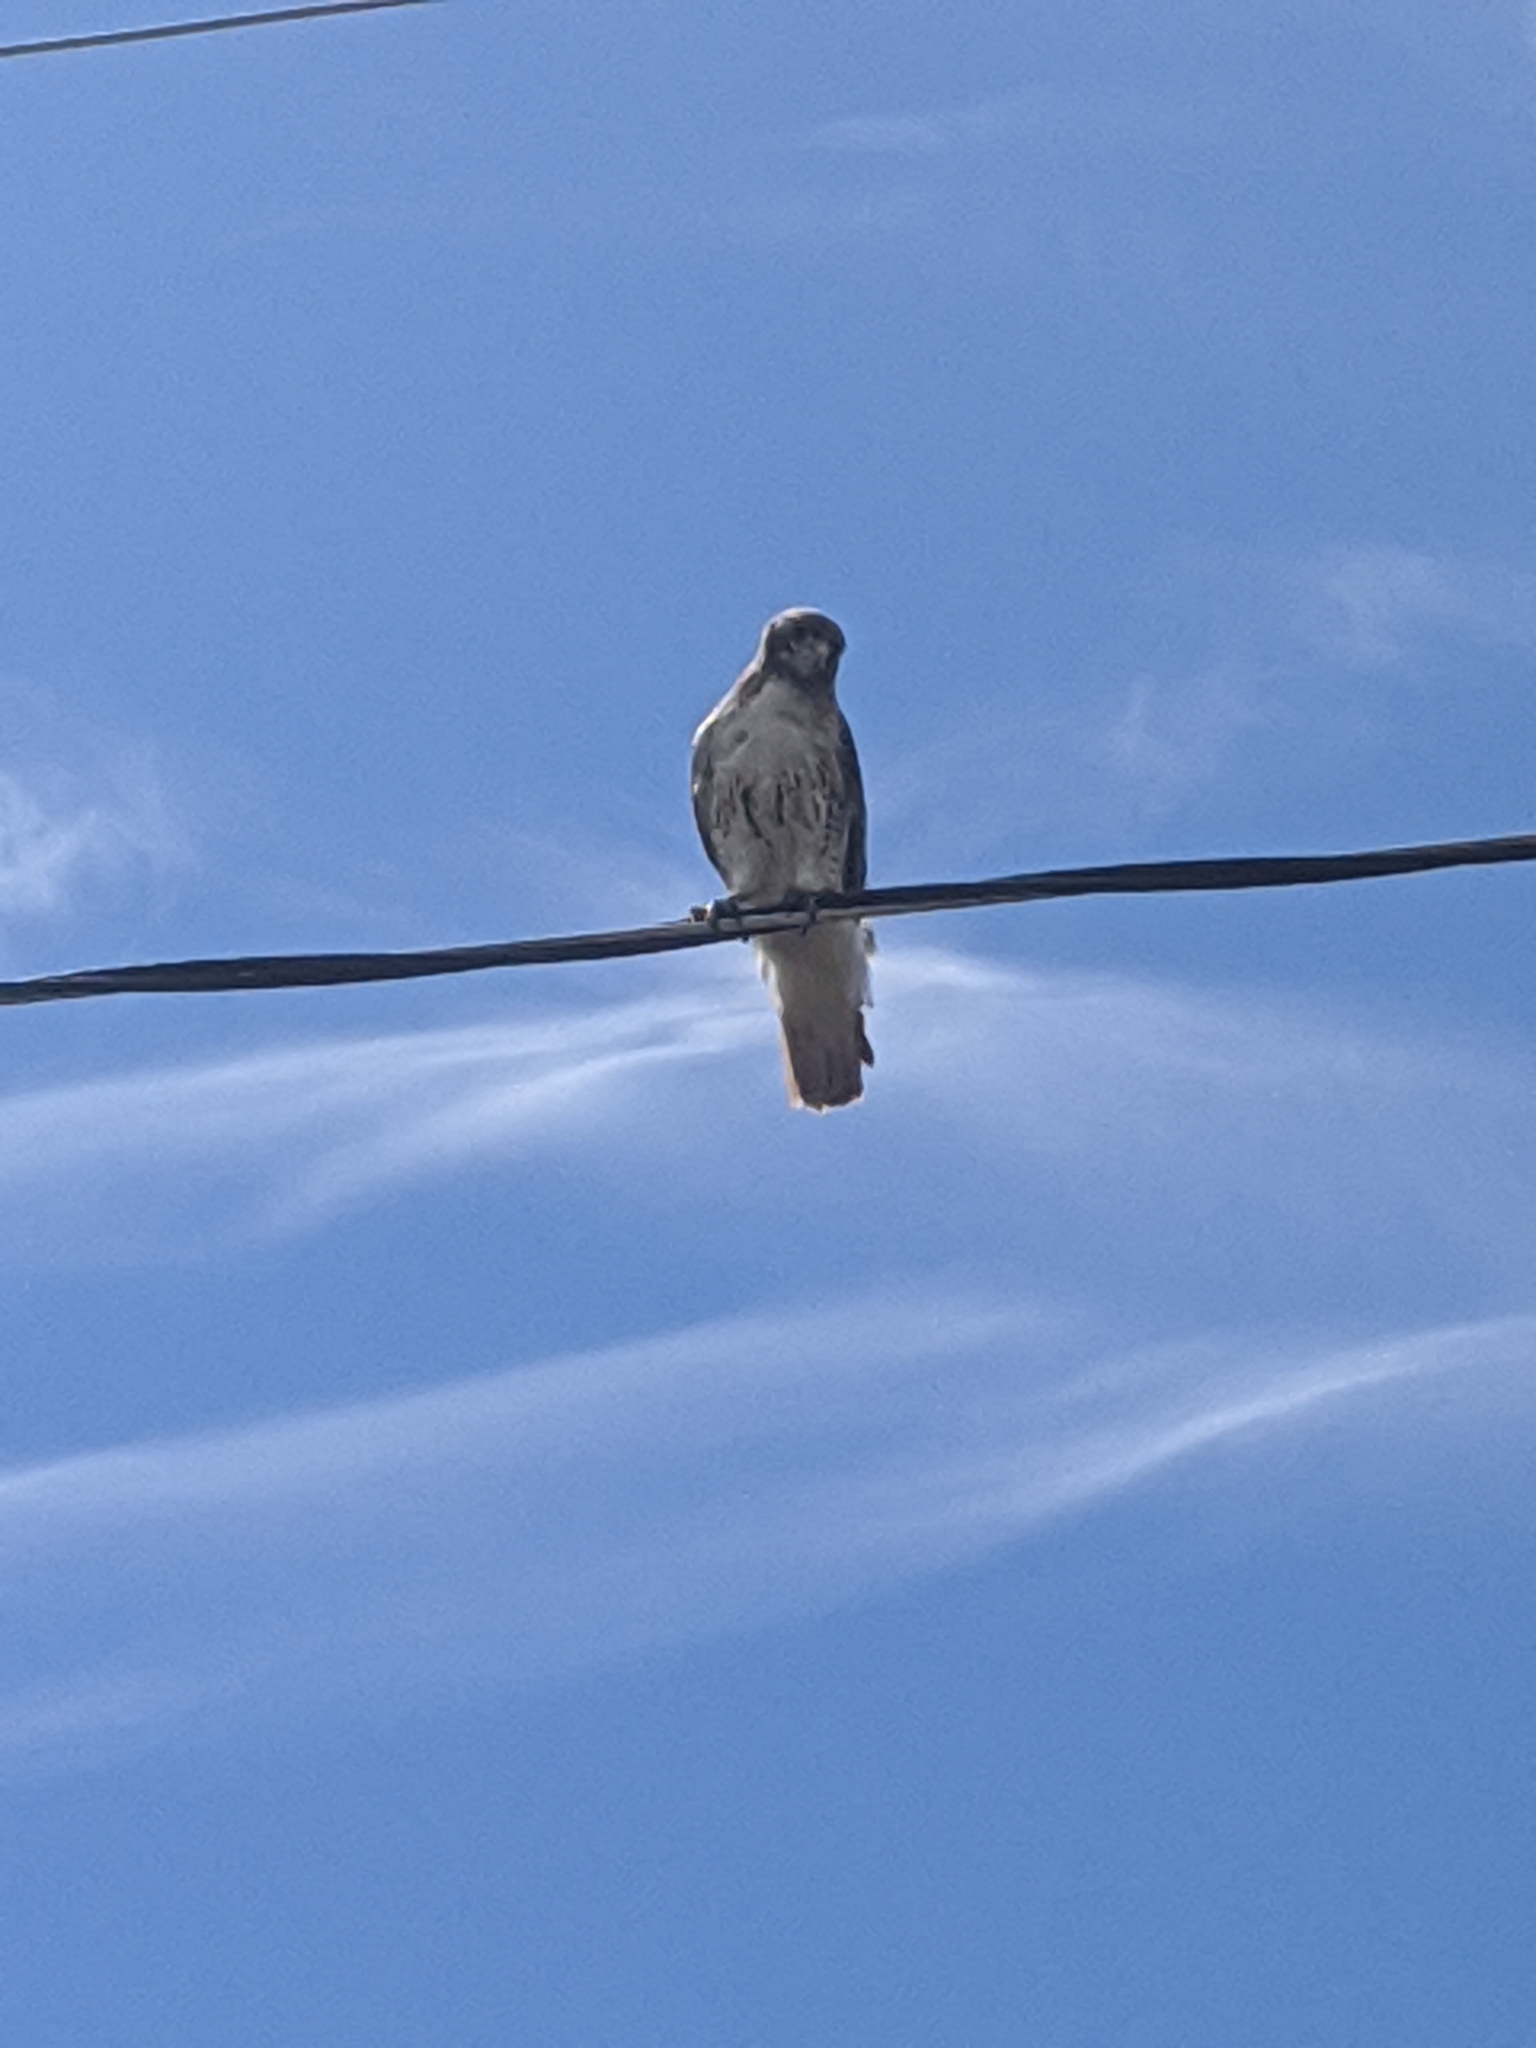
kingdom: Animalia
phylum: Chordata
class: Aves
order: Accipitriformes
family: Accipitridae
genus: Buteo
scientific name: Buteo jamaicensis
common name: Red-tailed hawk
